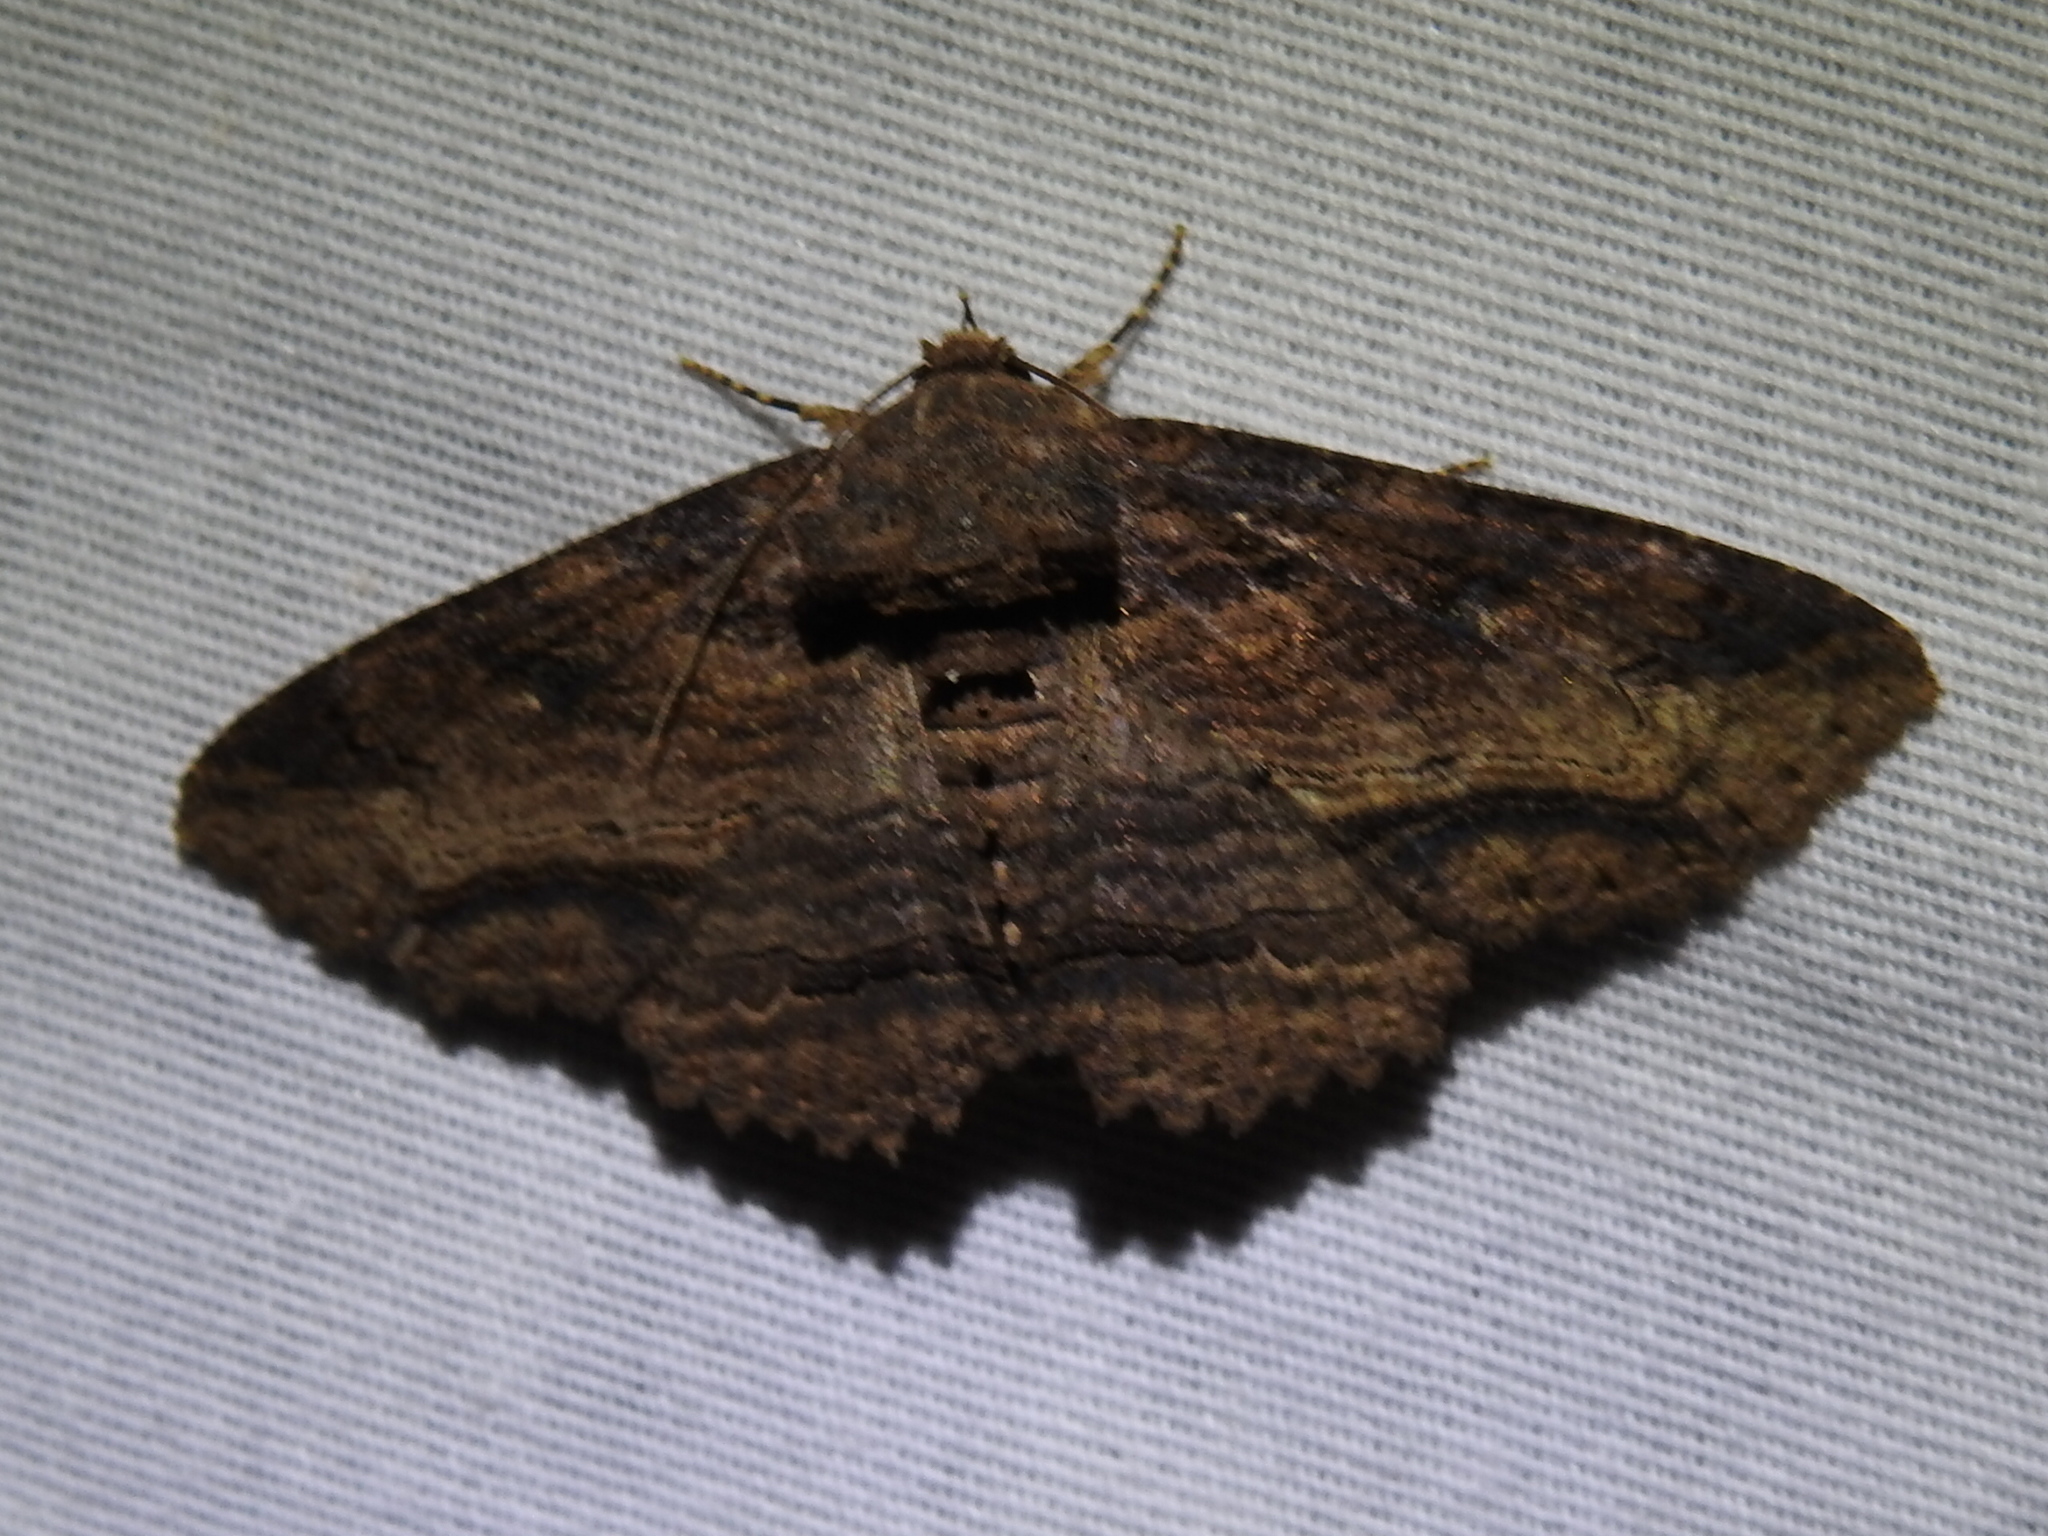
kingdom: Animalia
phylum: Arthropoda
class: Insecta
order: Lepidoptera
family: Erebidae
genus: Zale
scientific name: Zale lunata
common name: Lunate zale moth
